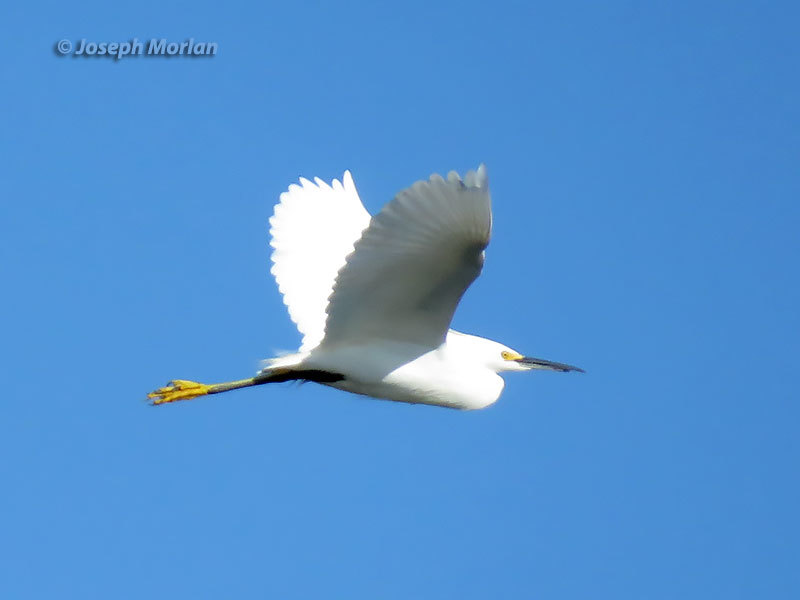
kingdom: Animalia
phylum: Chordata
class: Aves
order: Pelecaniformes
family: Ardeidae
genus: Egretta
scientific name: Egretta thula
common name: Snowy egret
